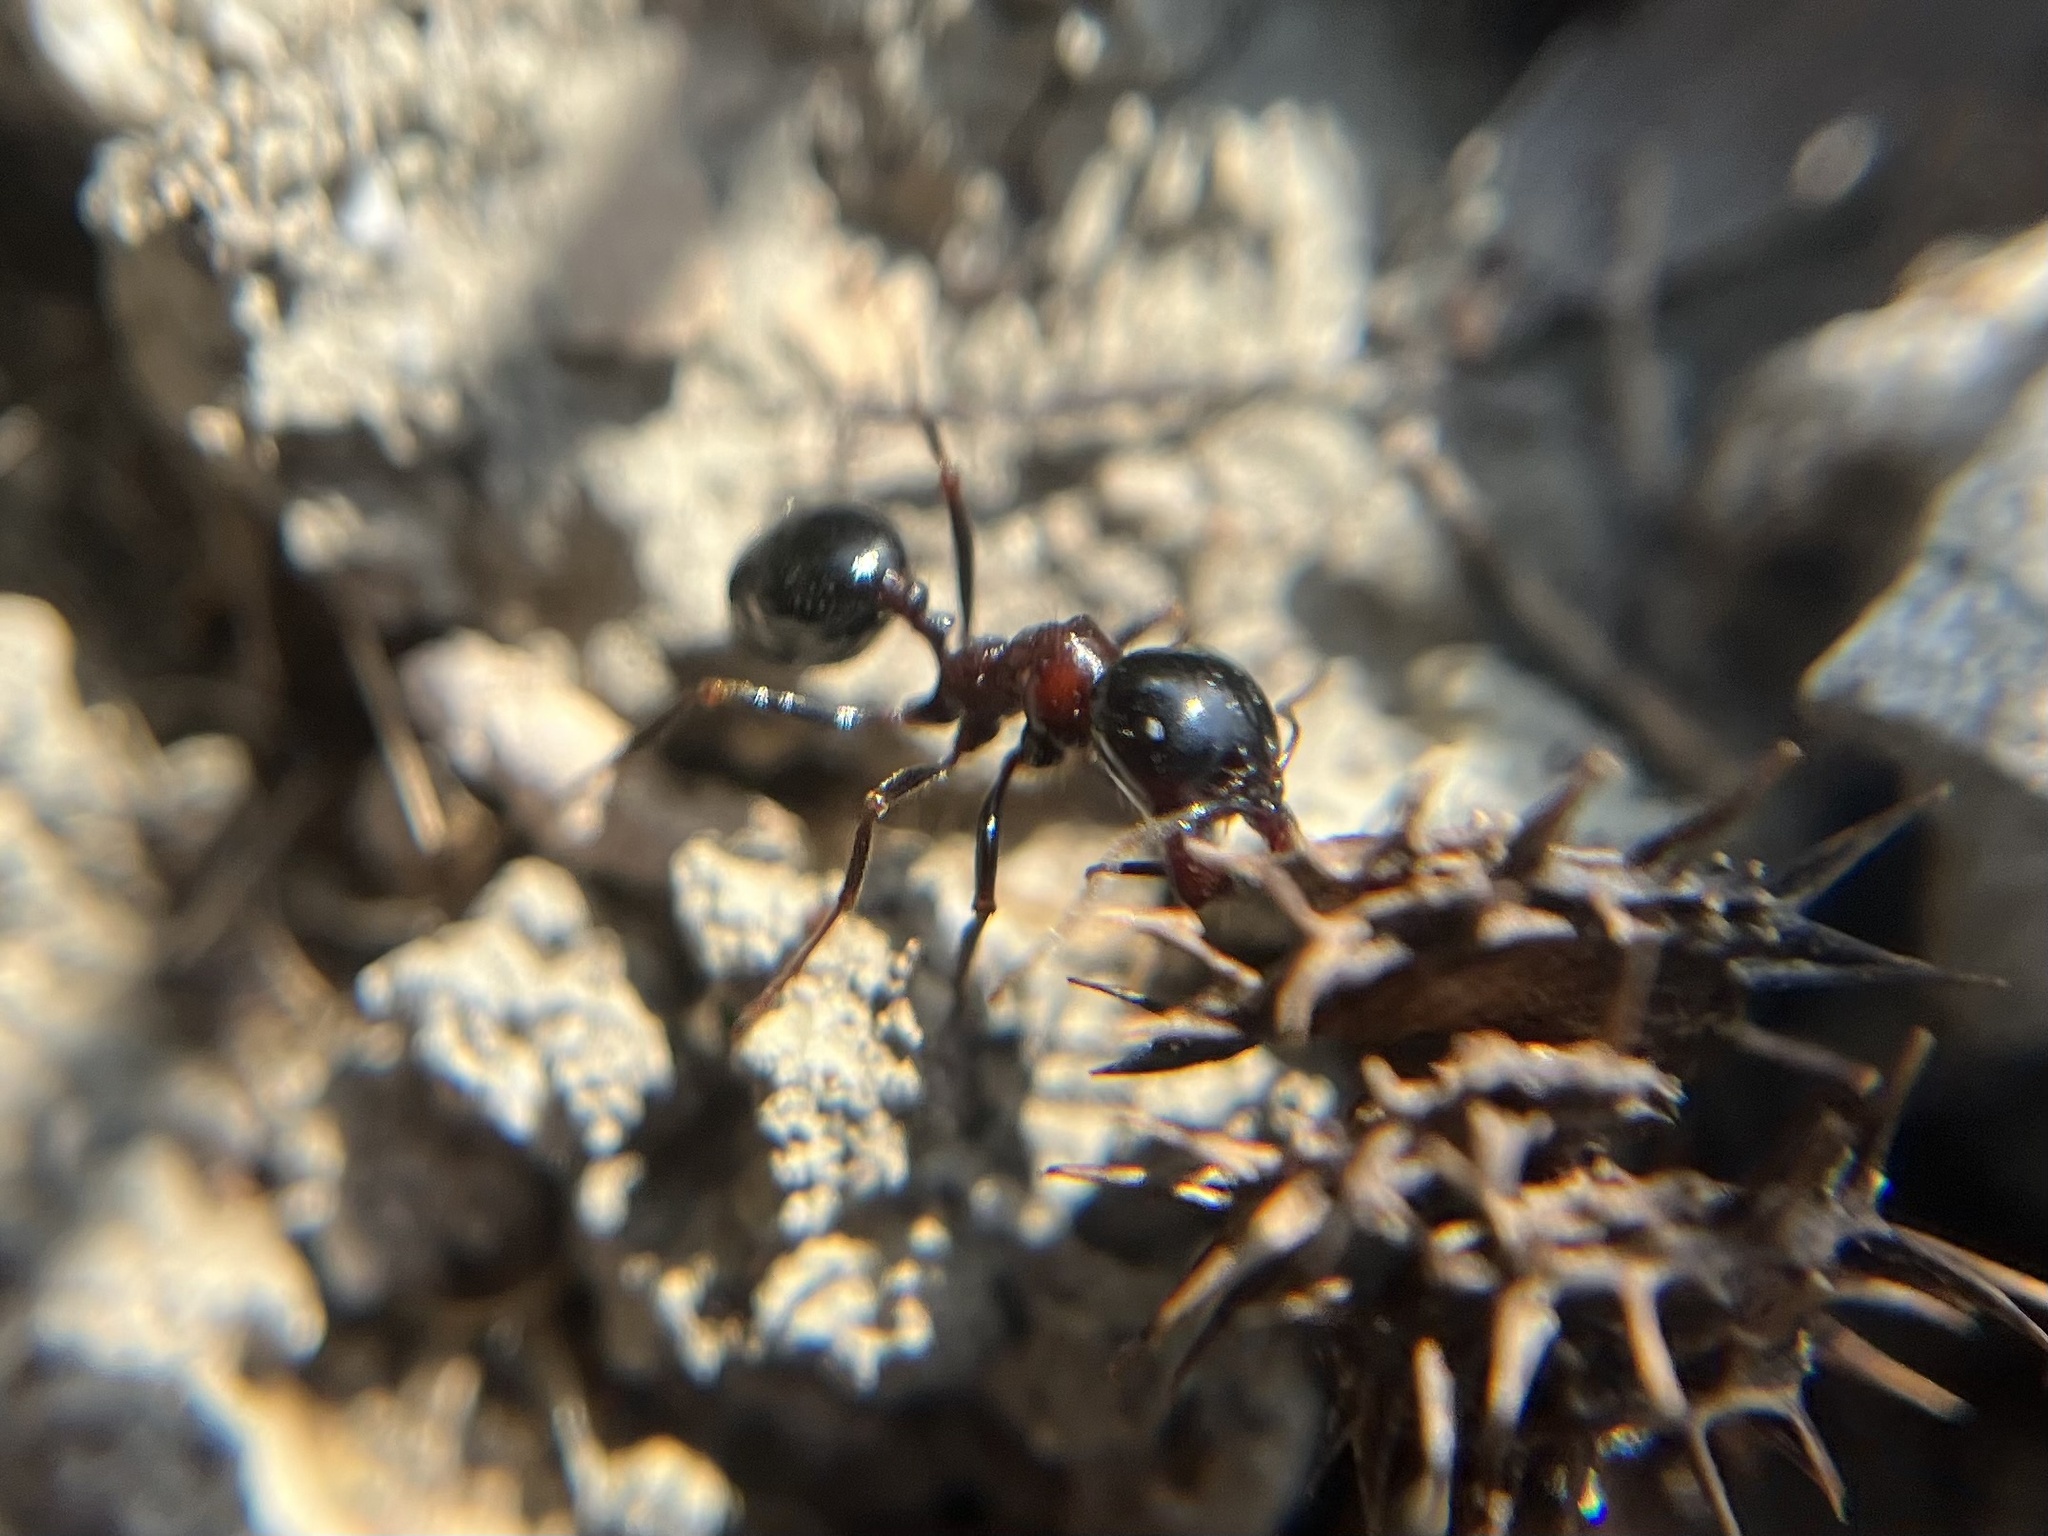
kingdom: Animalia
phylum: Arthropoda
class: Insecta
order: Hymenoptera
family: Formicidae
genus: Messor
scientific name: Messor wasmanni
